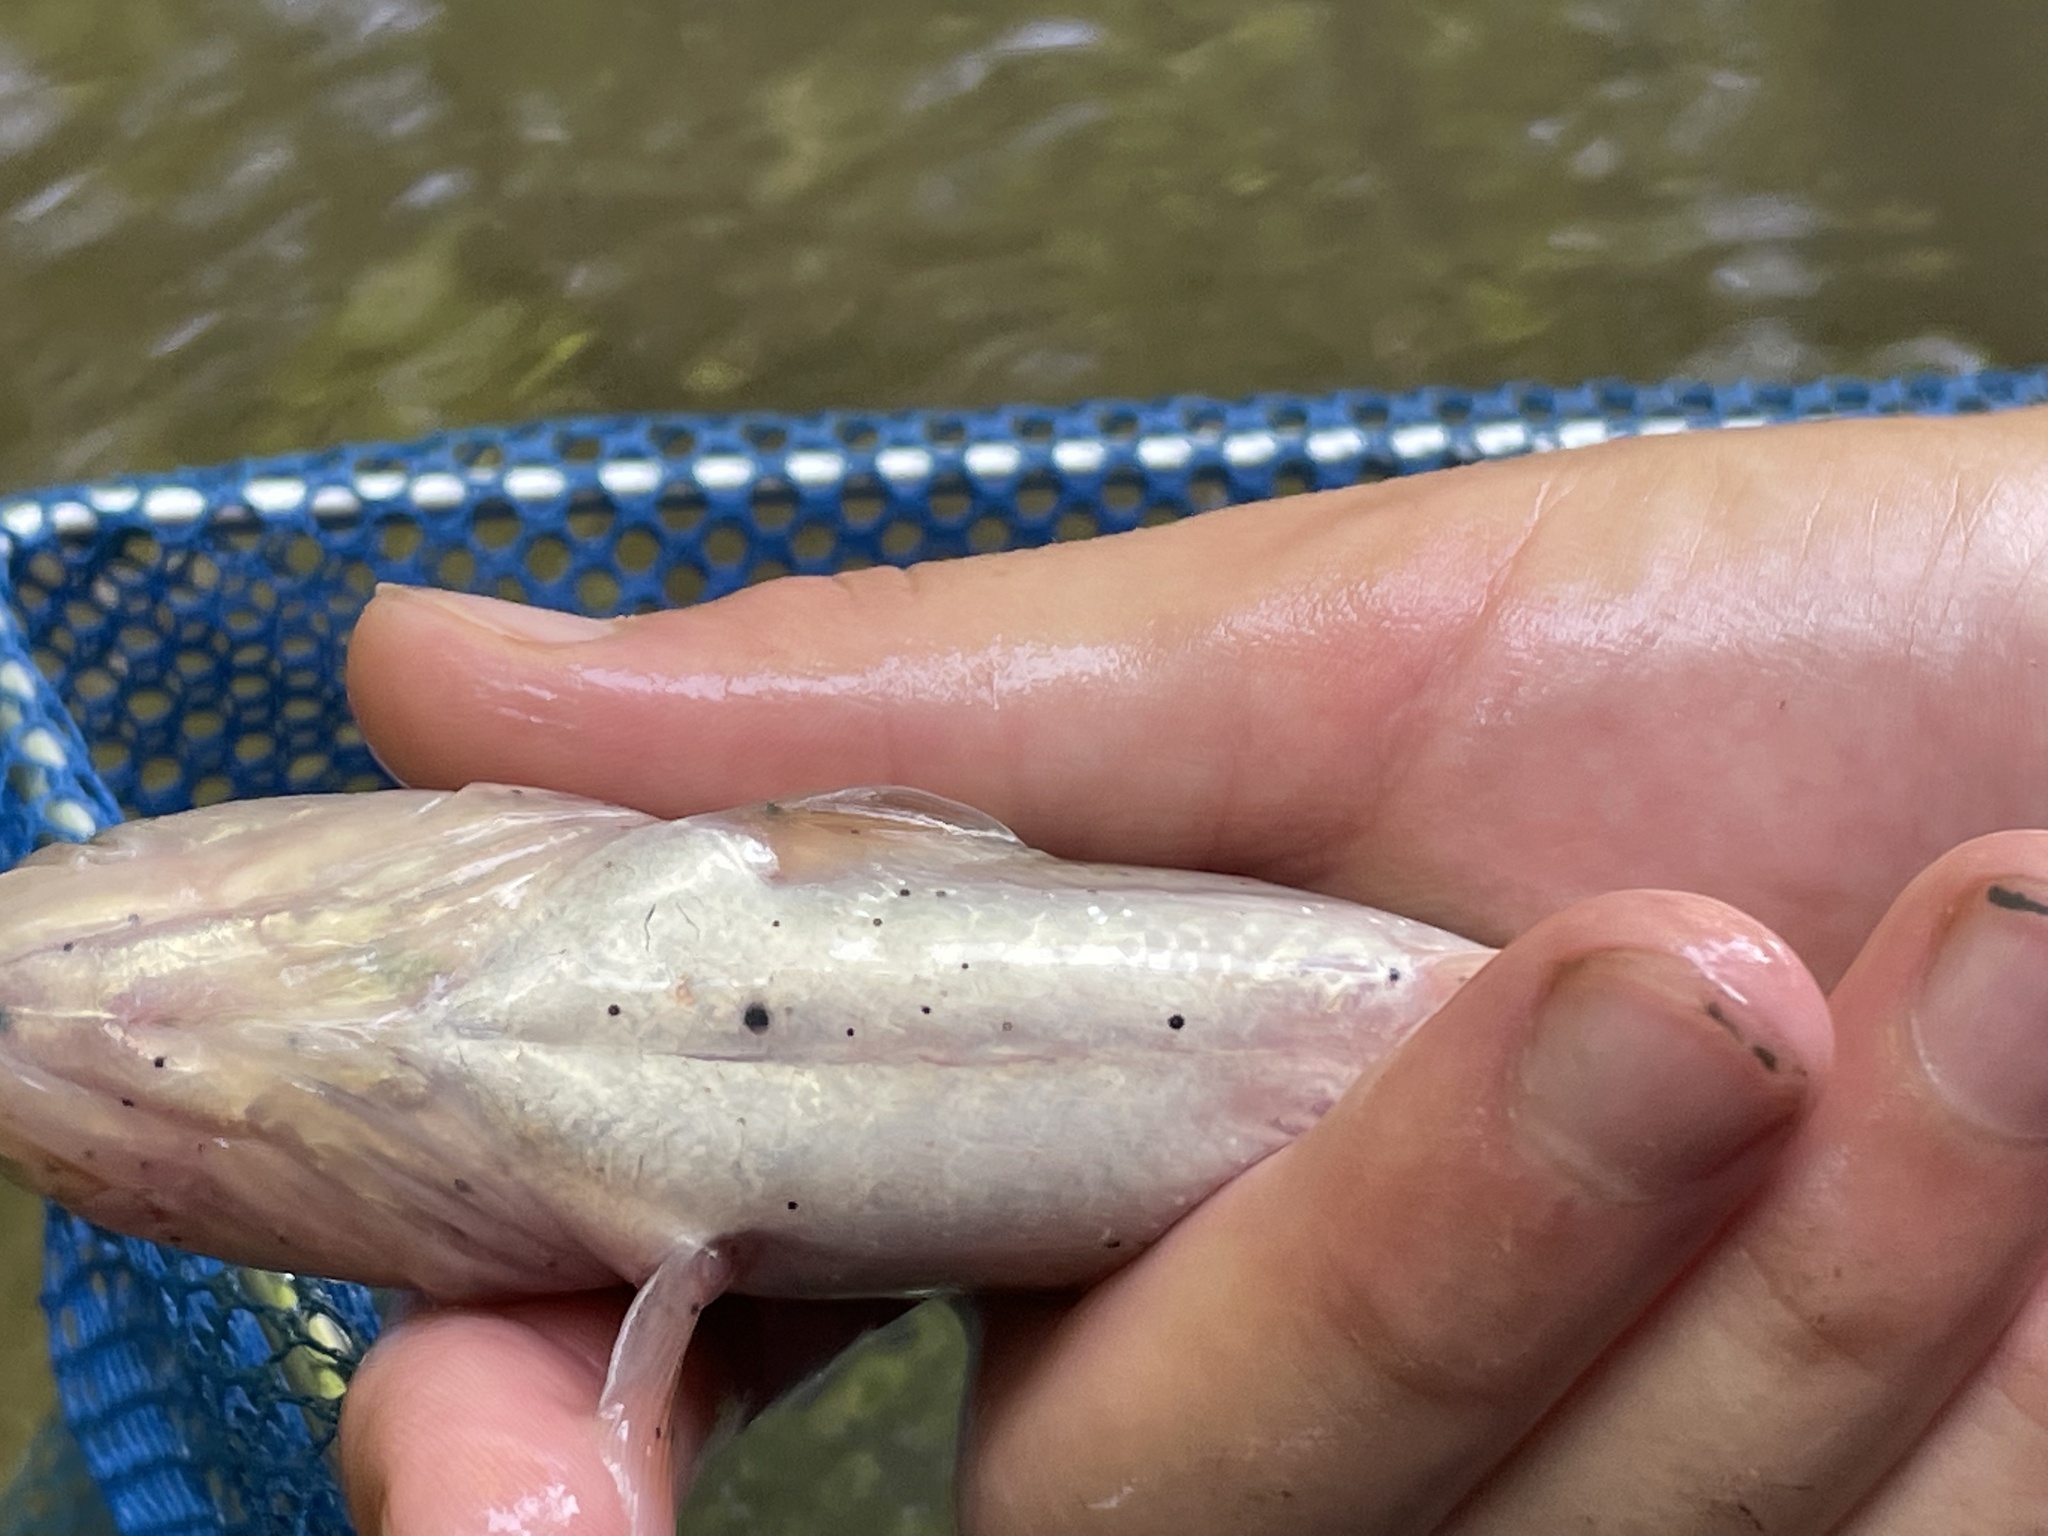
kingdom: Animalia
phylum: Platyhelminthes
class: Trematoda
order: Diplostomida
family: Diplostomidae
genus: Neascus
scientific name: Neascus
